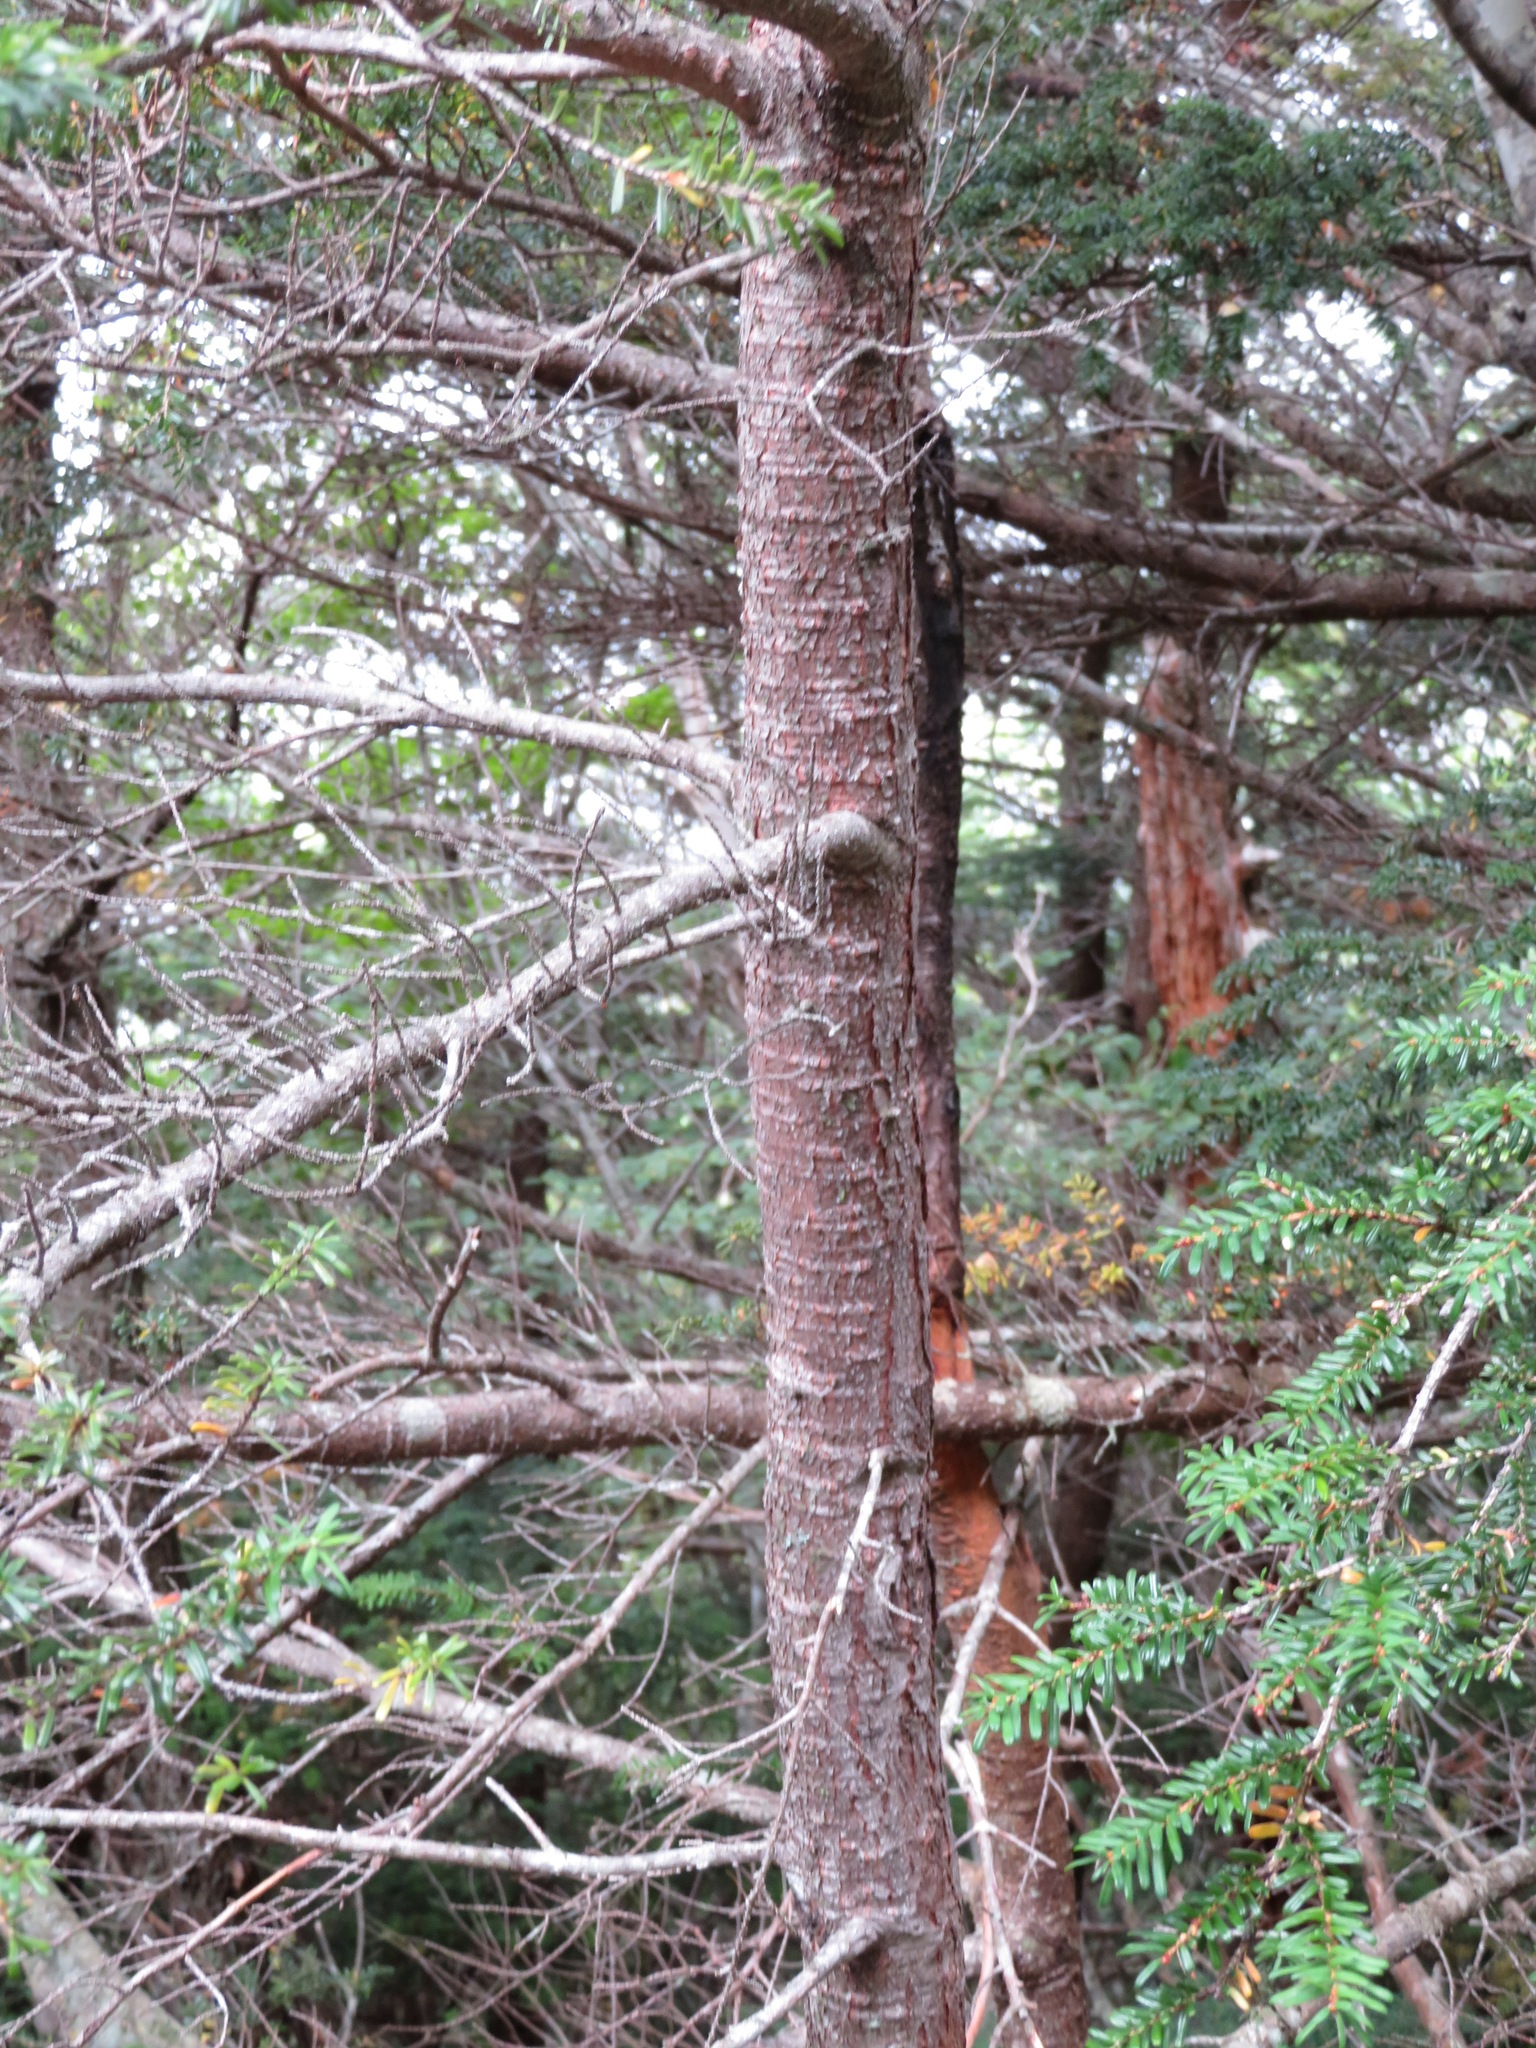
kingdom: Plantae
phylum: Tracheophyta
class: Pinopsida
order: Pinales
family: Pinaceae
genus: Tsuga
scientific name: Tsuga diversifolia
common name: Northern japanese hemlock
